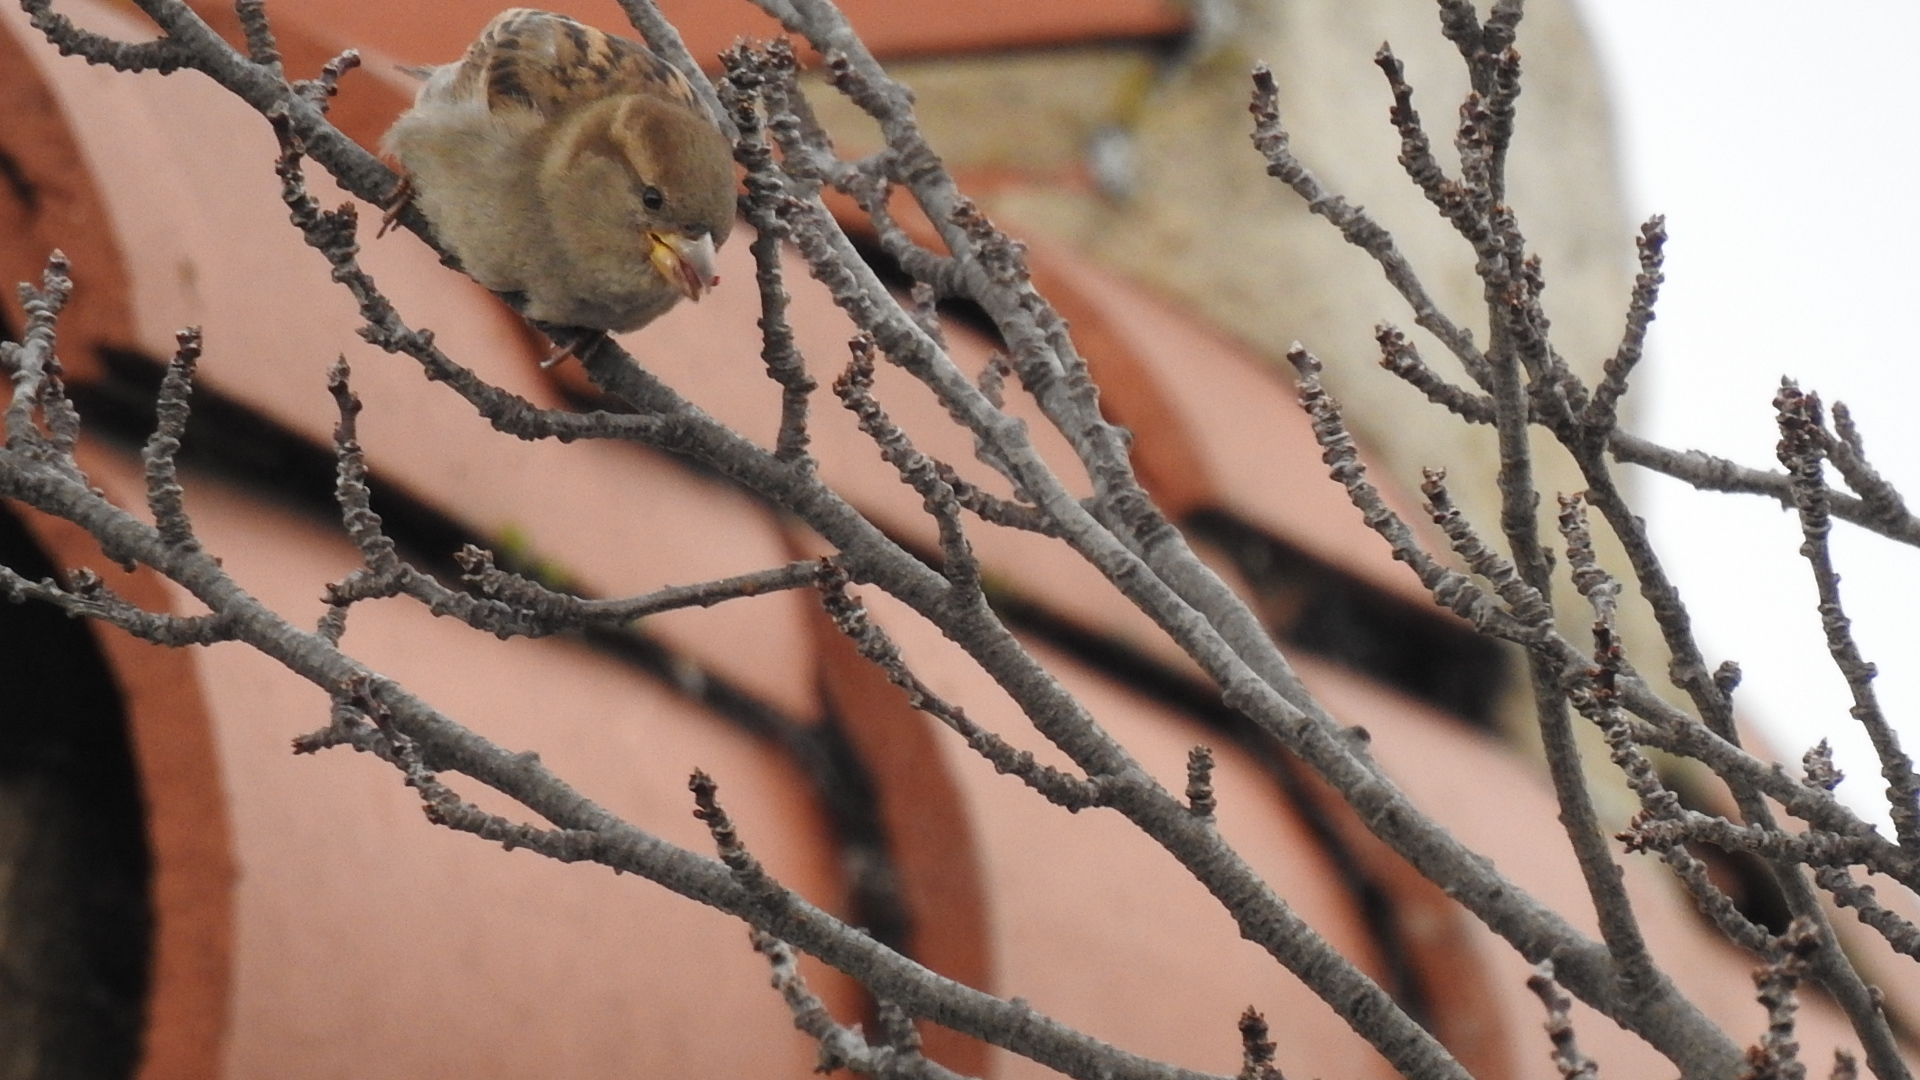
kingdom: Animalia
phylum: Chordata
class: Aves
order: Passeriformes
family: Passeridae
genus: Passer
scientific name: Passer domesticus
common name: House sparrow
